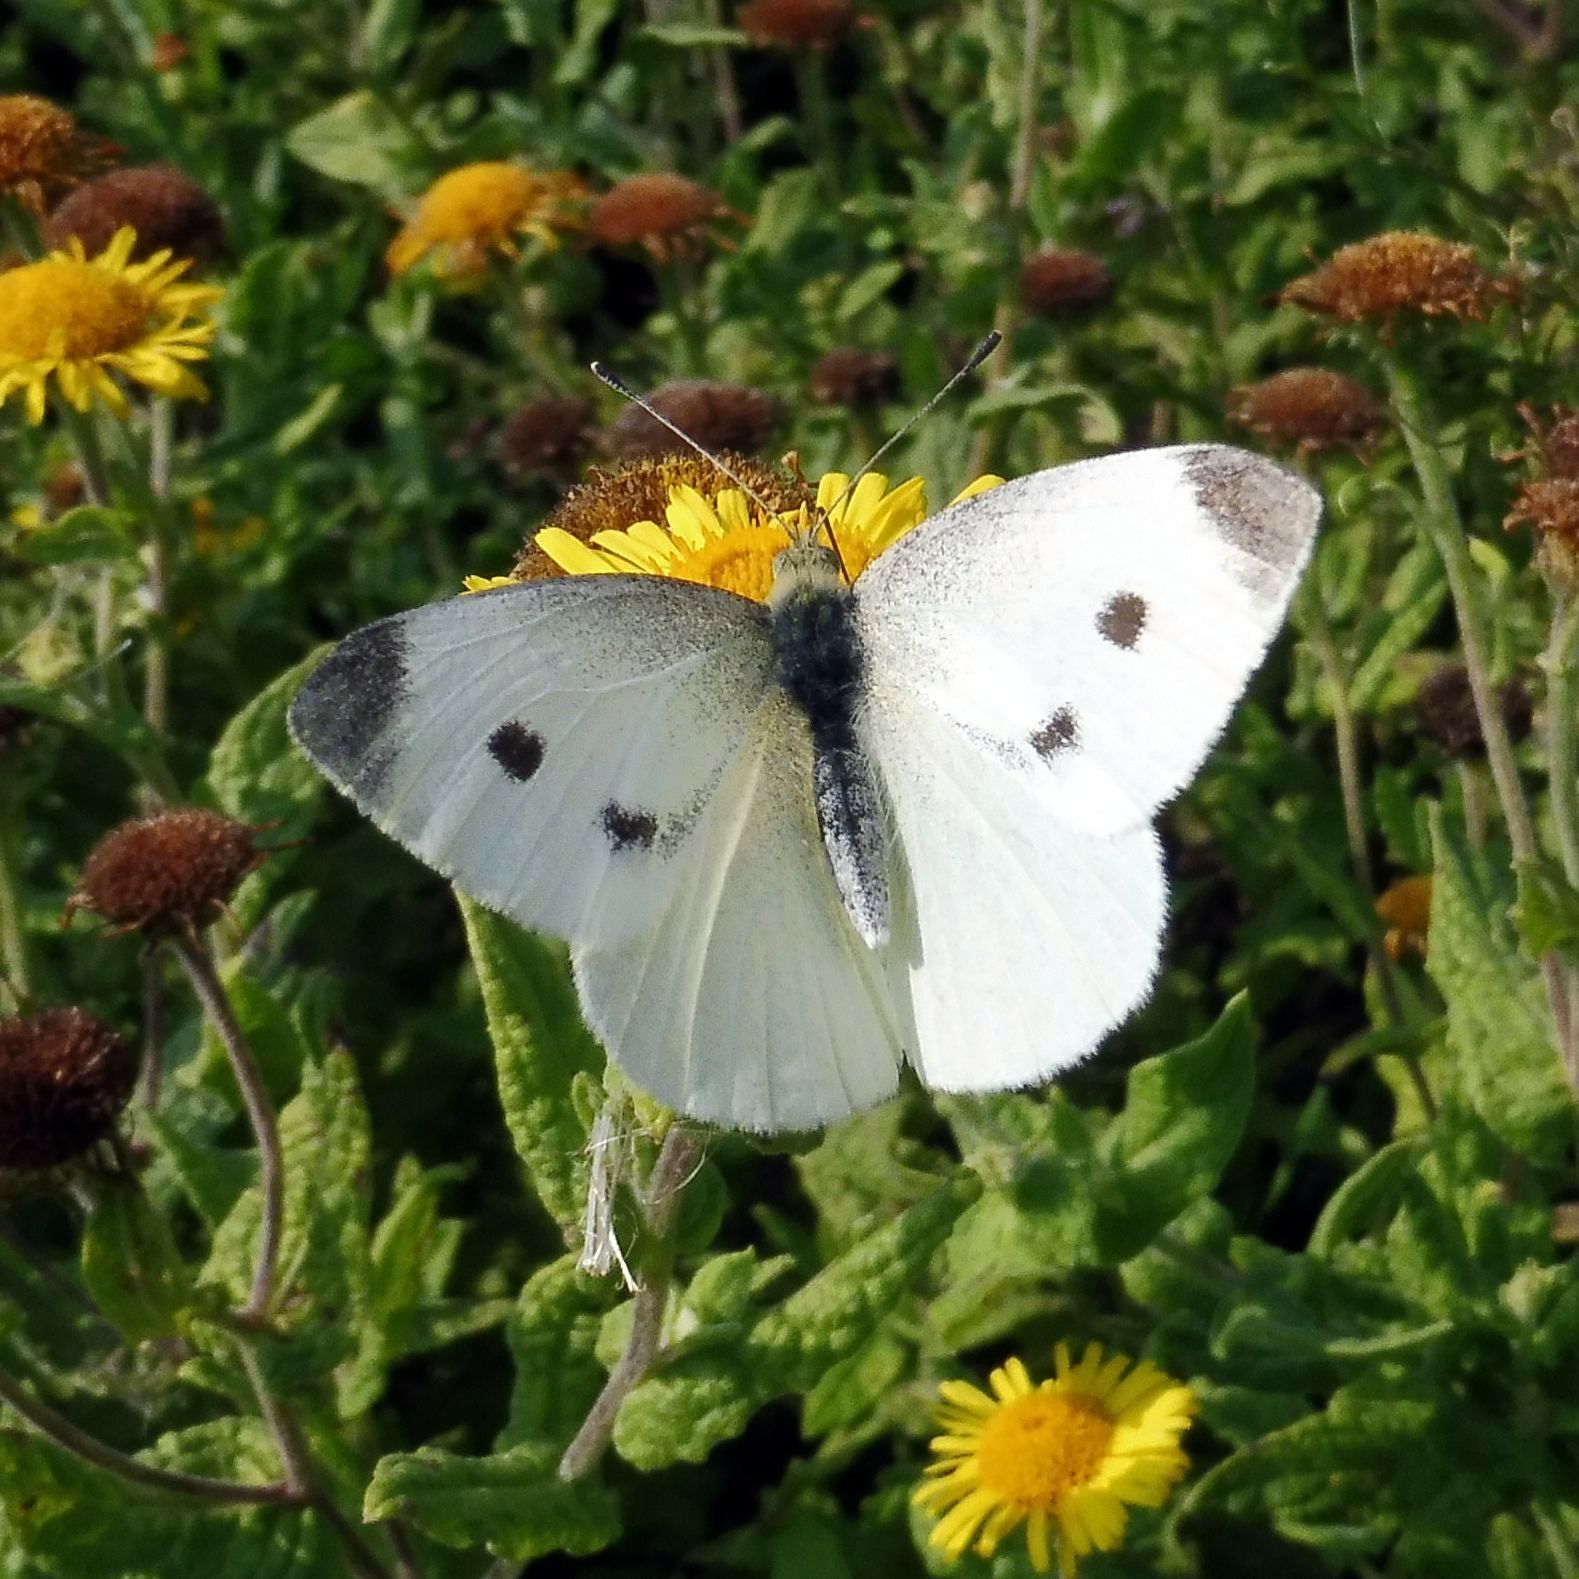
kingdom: Animalia
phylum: Arthropoda
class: Insecta
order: Lepidoptera
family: Pieridae
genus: Pieris
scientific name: Pieris rapae
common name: Small white
